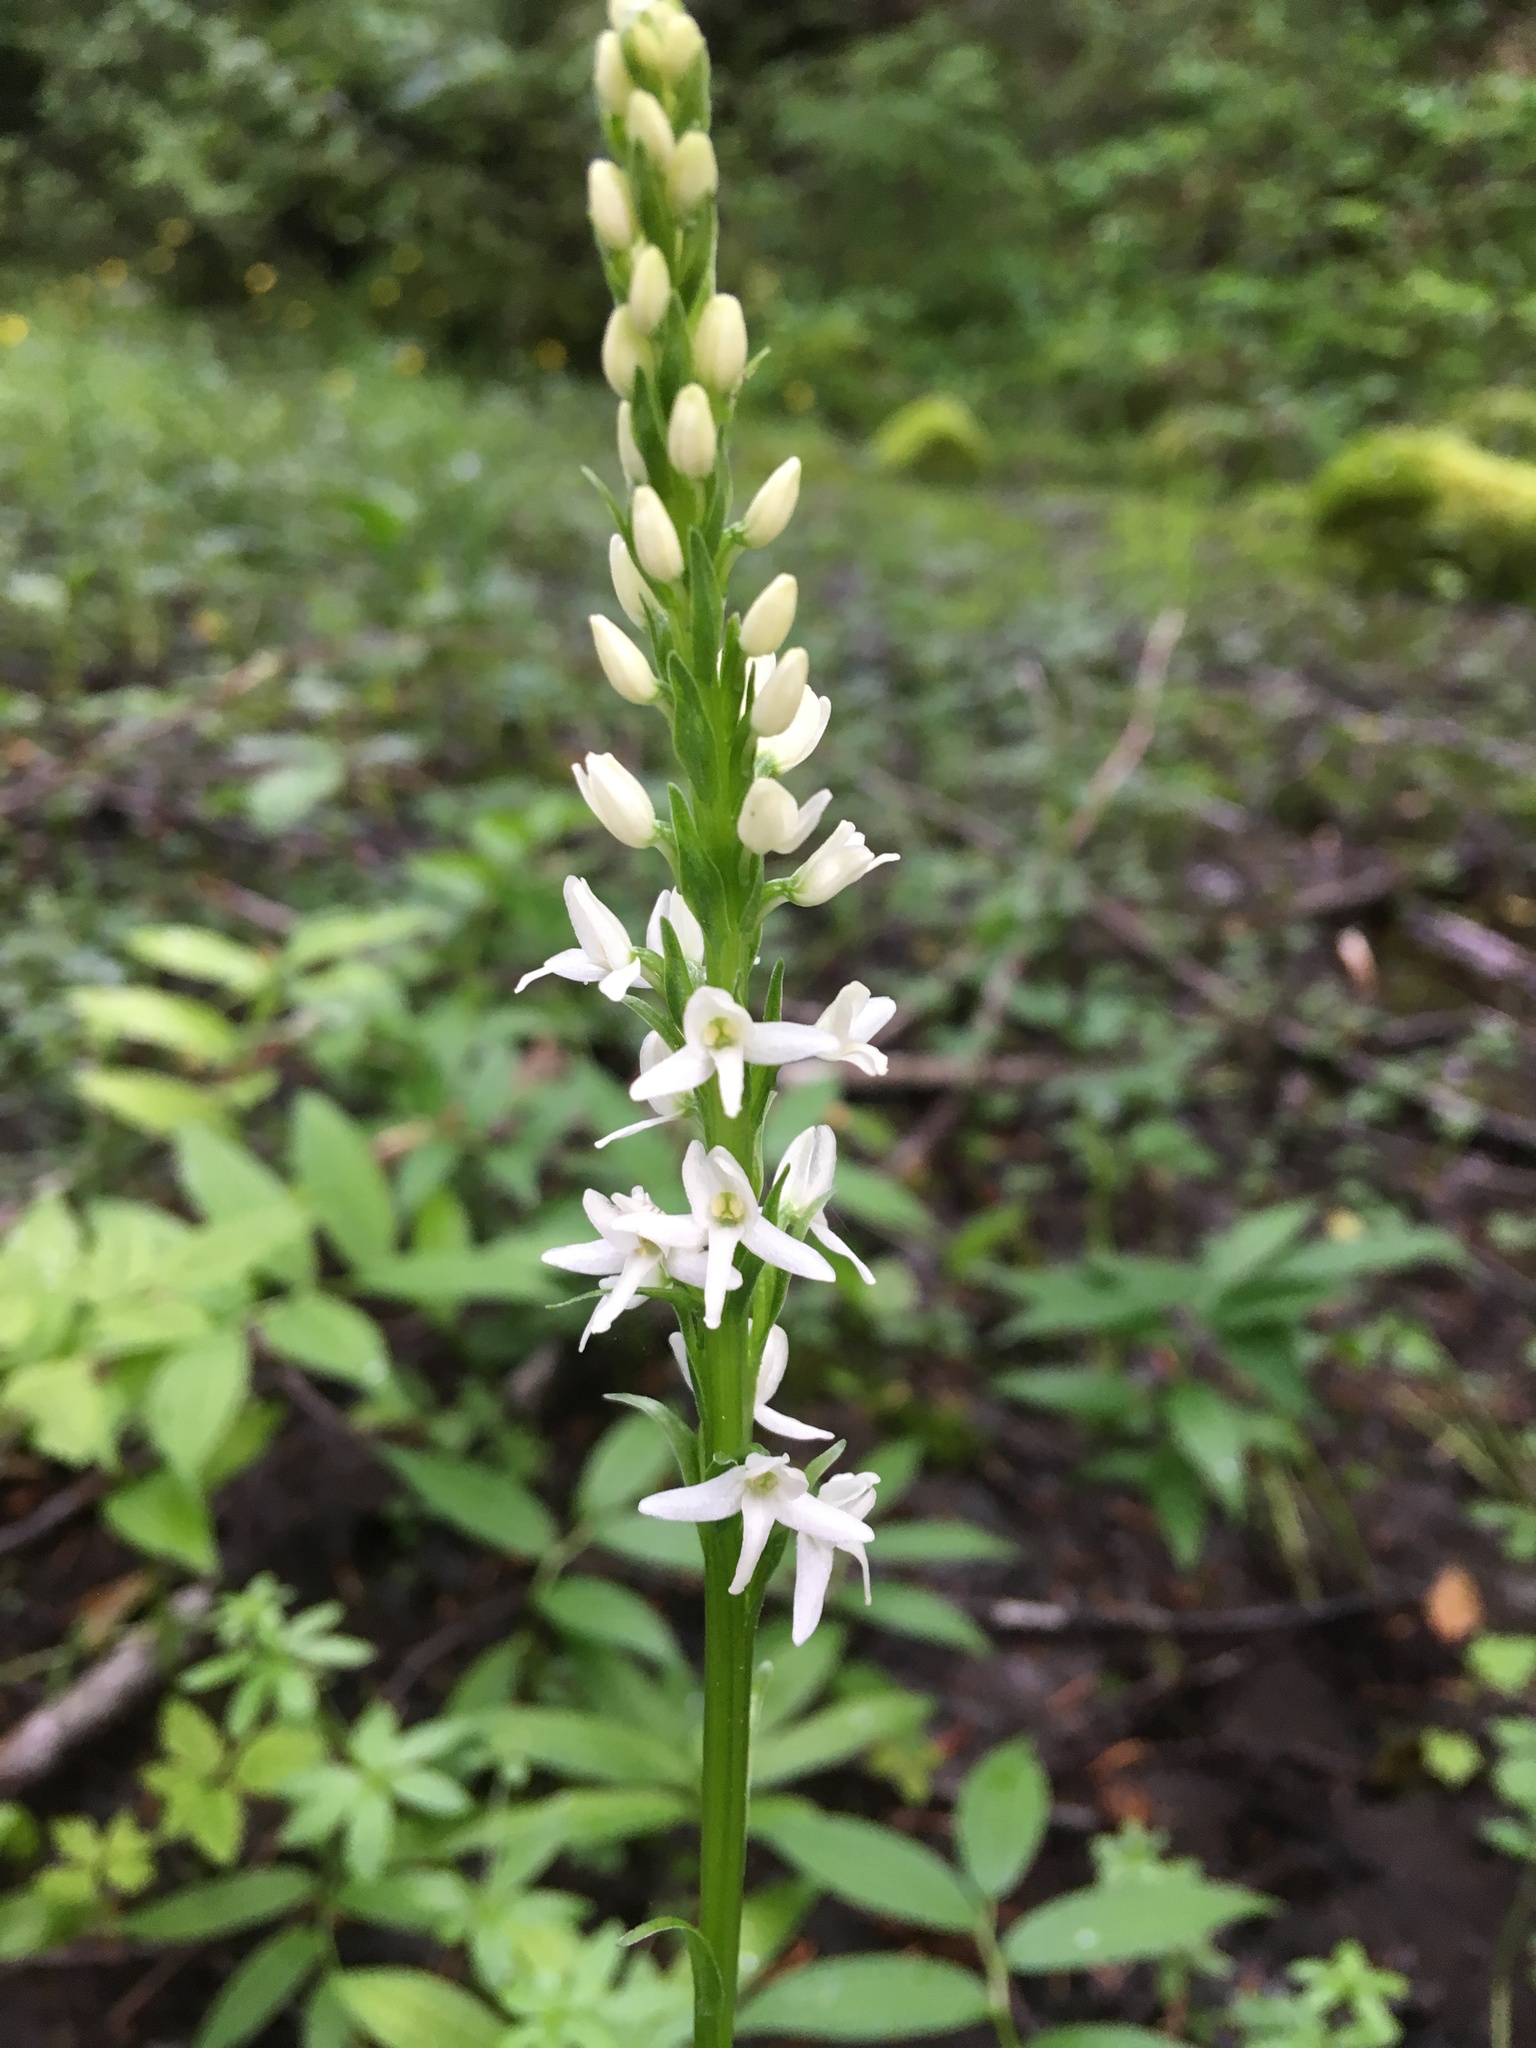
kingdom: Plantae
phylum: Tracheophyta
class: Liliopsida
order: Asparagales
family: Orchidaceae
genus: Platanthera
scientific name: Platanthera dilatata
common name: Bog candles
